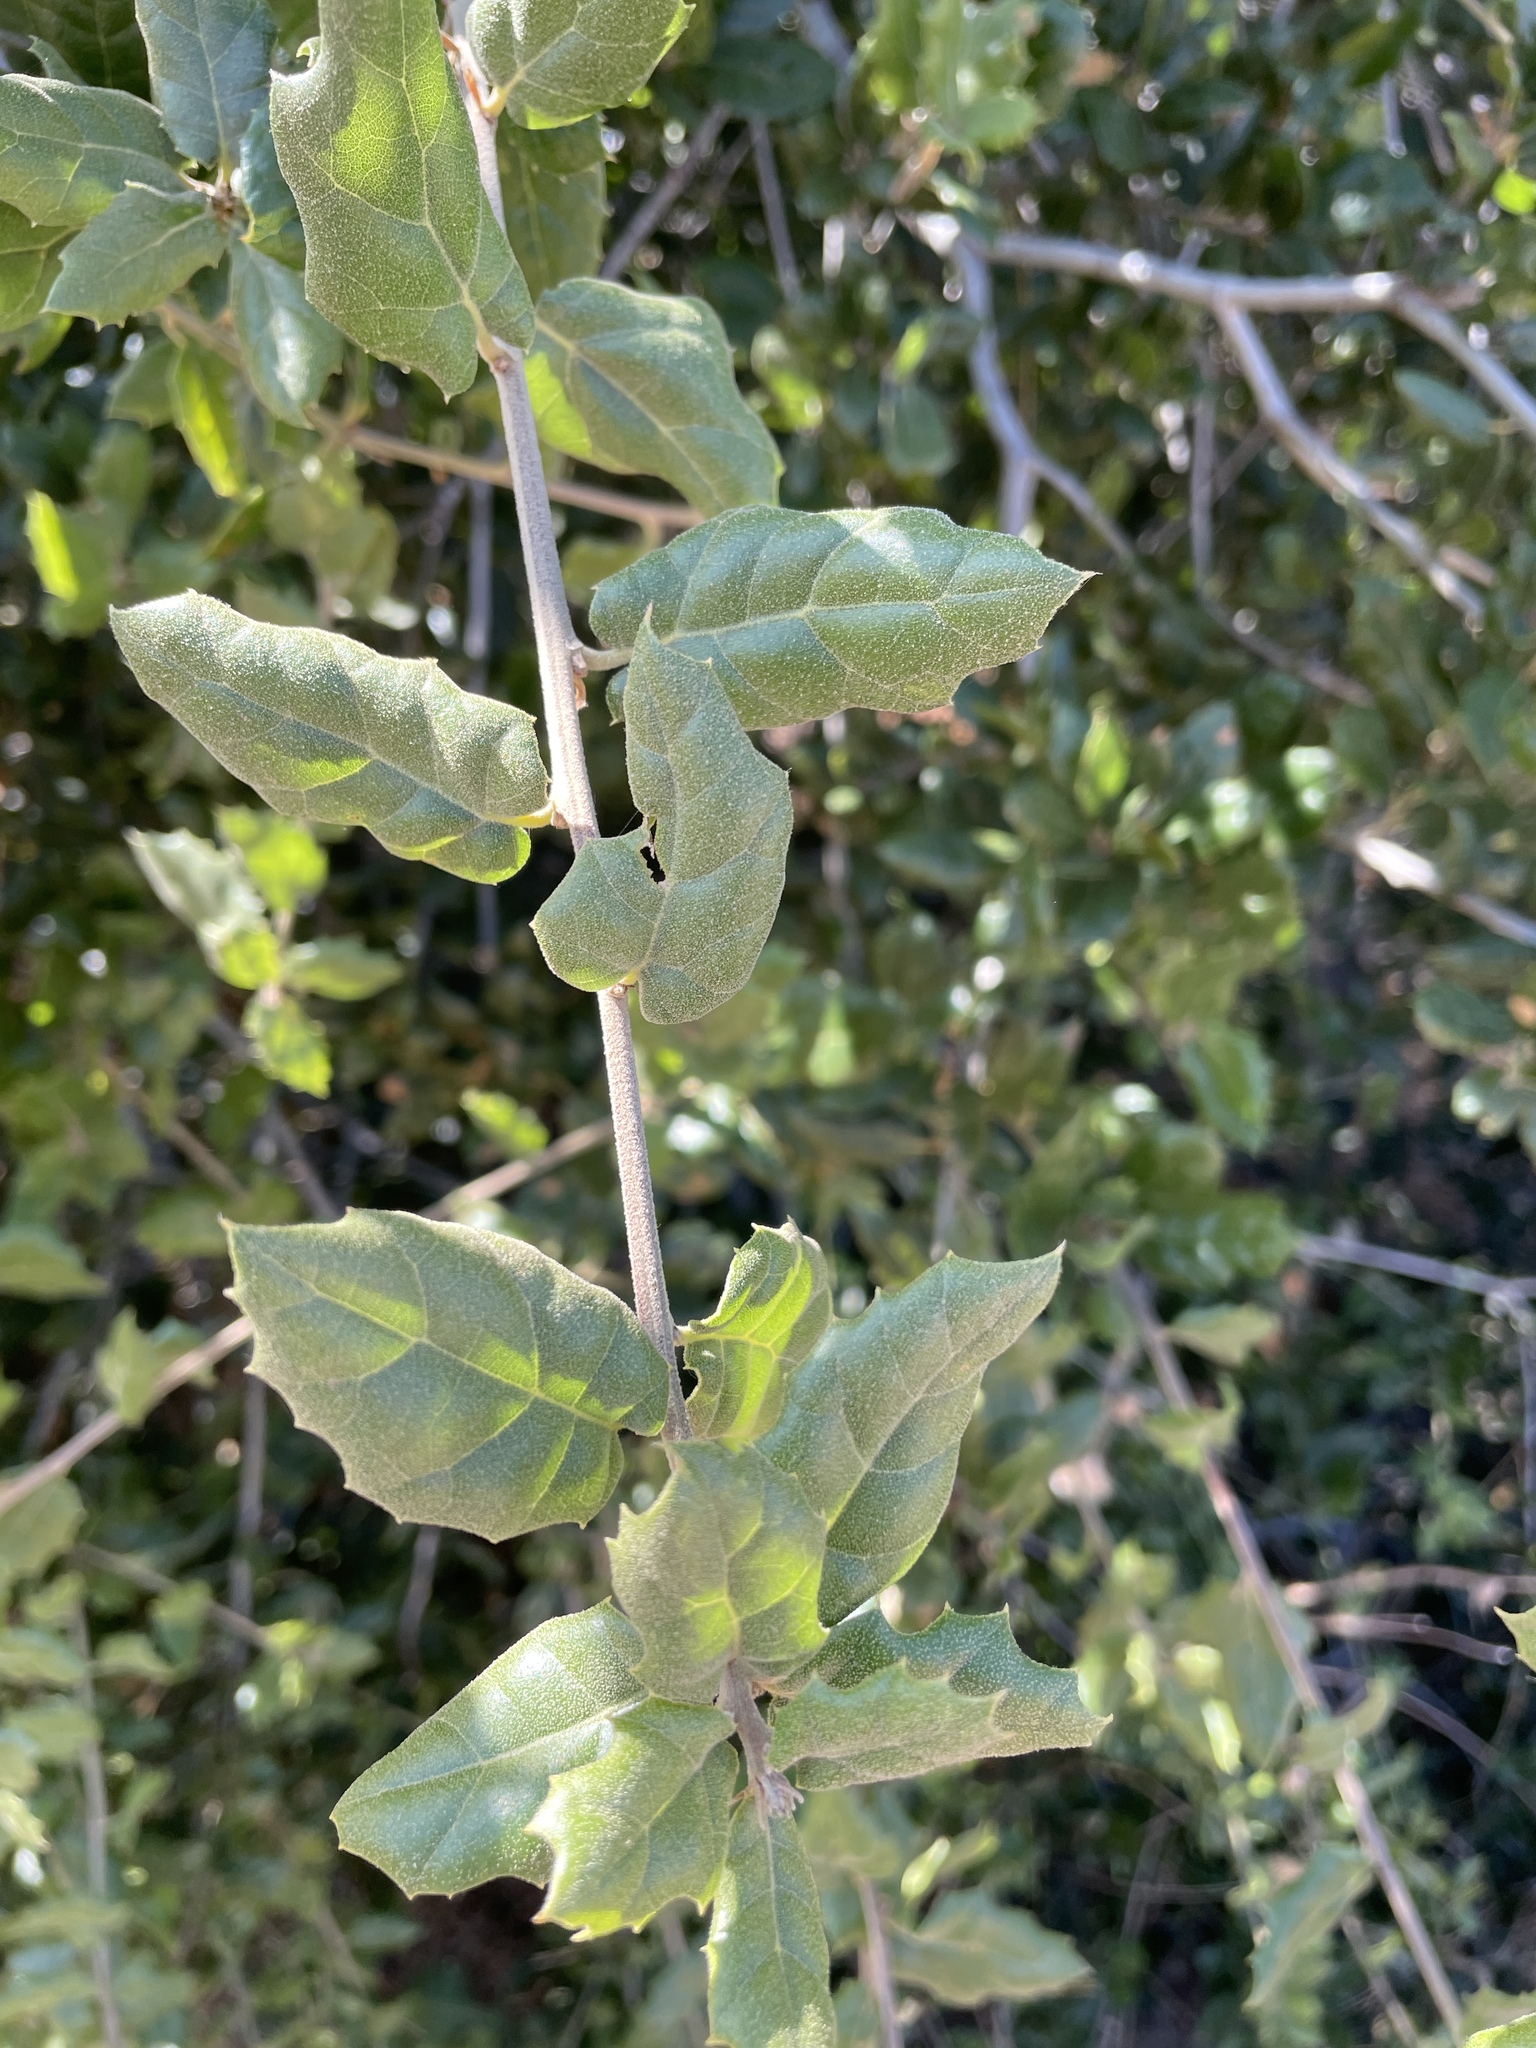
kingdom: Plantae
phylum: Tracheophyta
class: Magnoliopsida
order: Fagales
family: Fagaceae
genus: Quercus
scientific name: Quercus agrifolia
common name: California live oak
